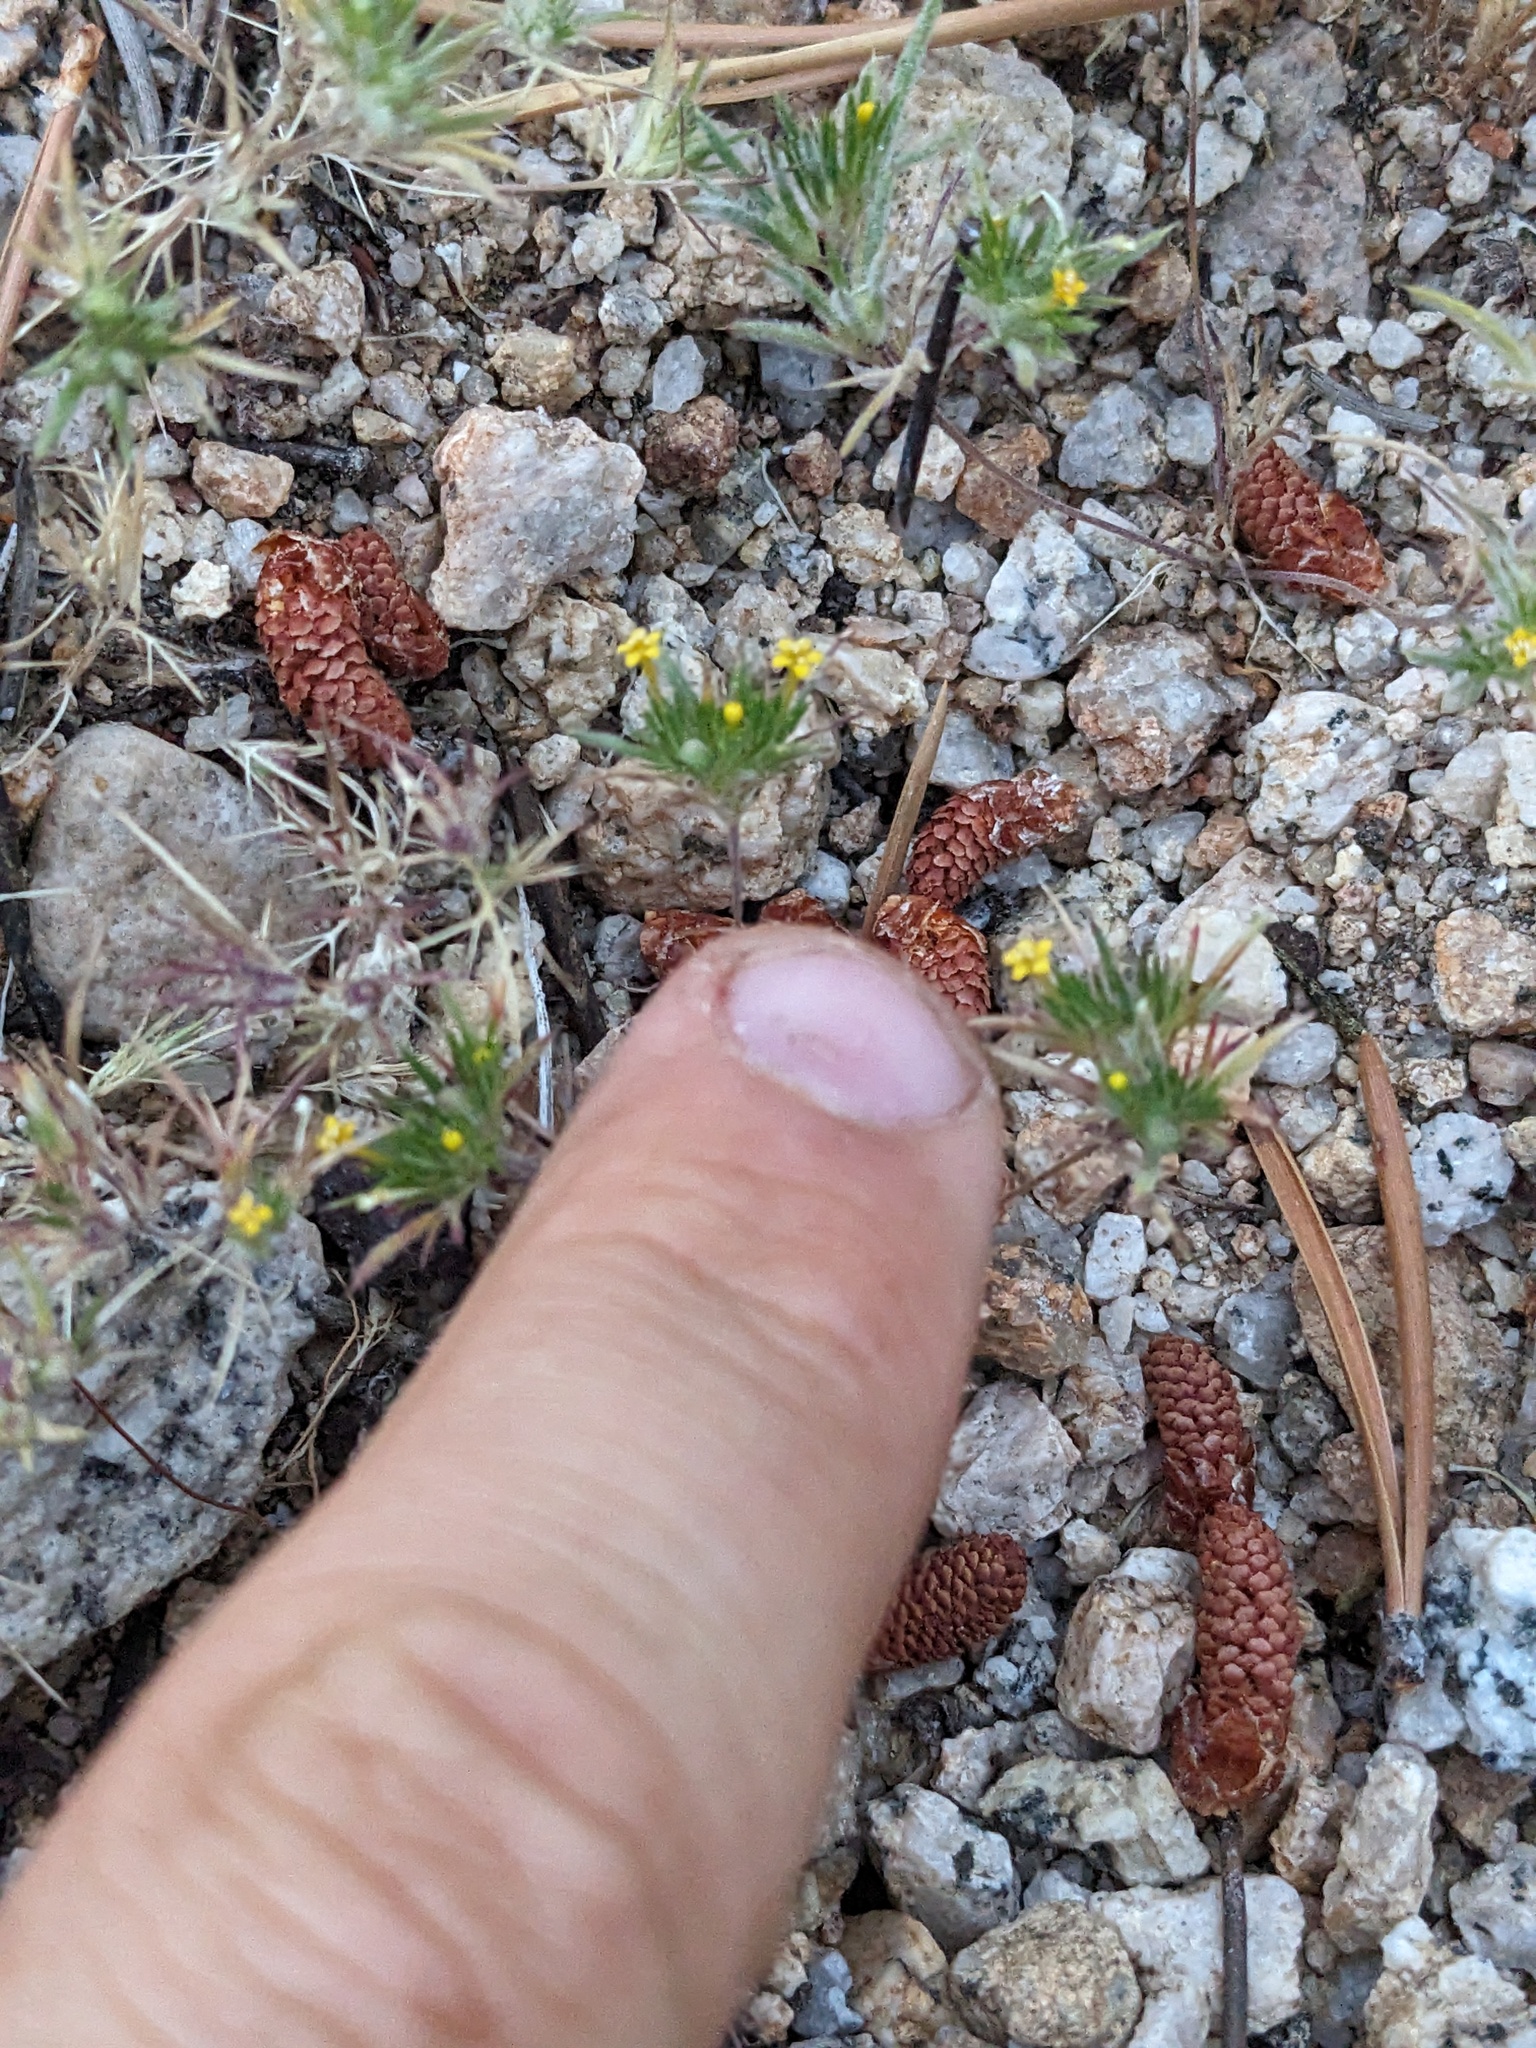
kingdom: Plantae
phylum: Tracheophyta
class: Magnoliopsida
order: Ericales
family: Polemoniaceae
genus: Navarretia
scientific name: Navarretia breweri
